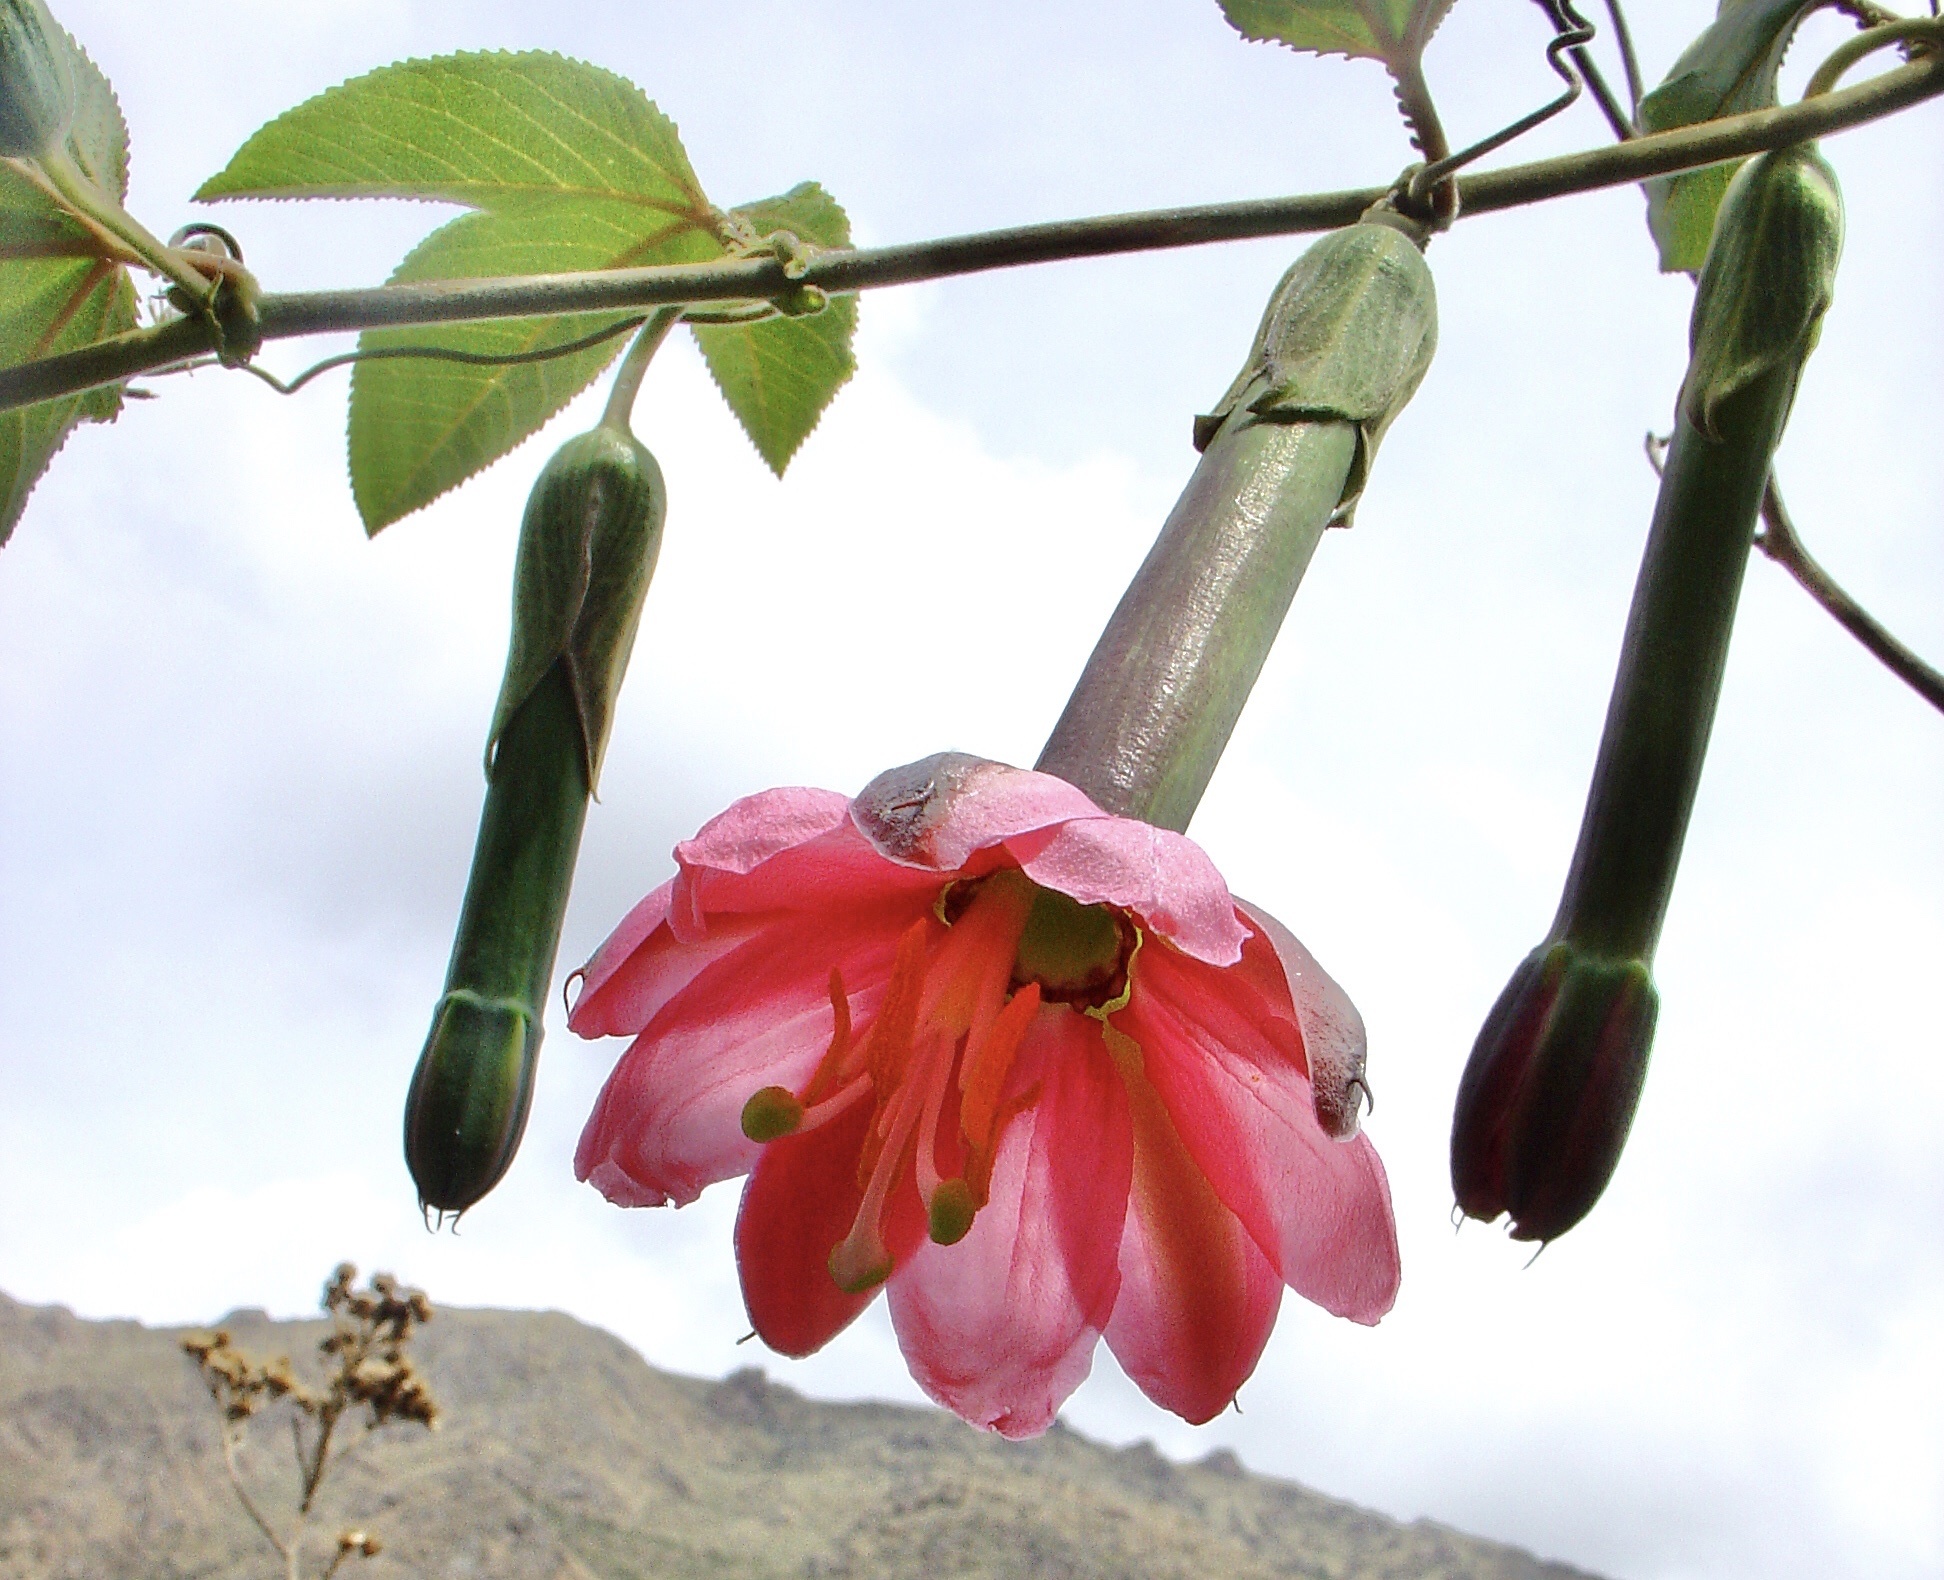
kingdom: Plantae
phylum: Tracheophyta
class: Magnoliopsida
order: Malpighiales
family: Passifloraceae
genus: Passiflora
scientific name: Passiflora tripartita
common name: Banana poka
